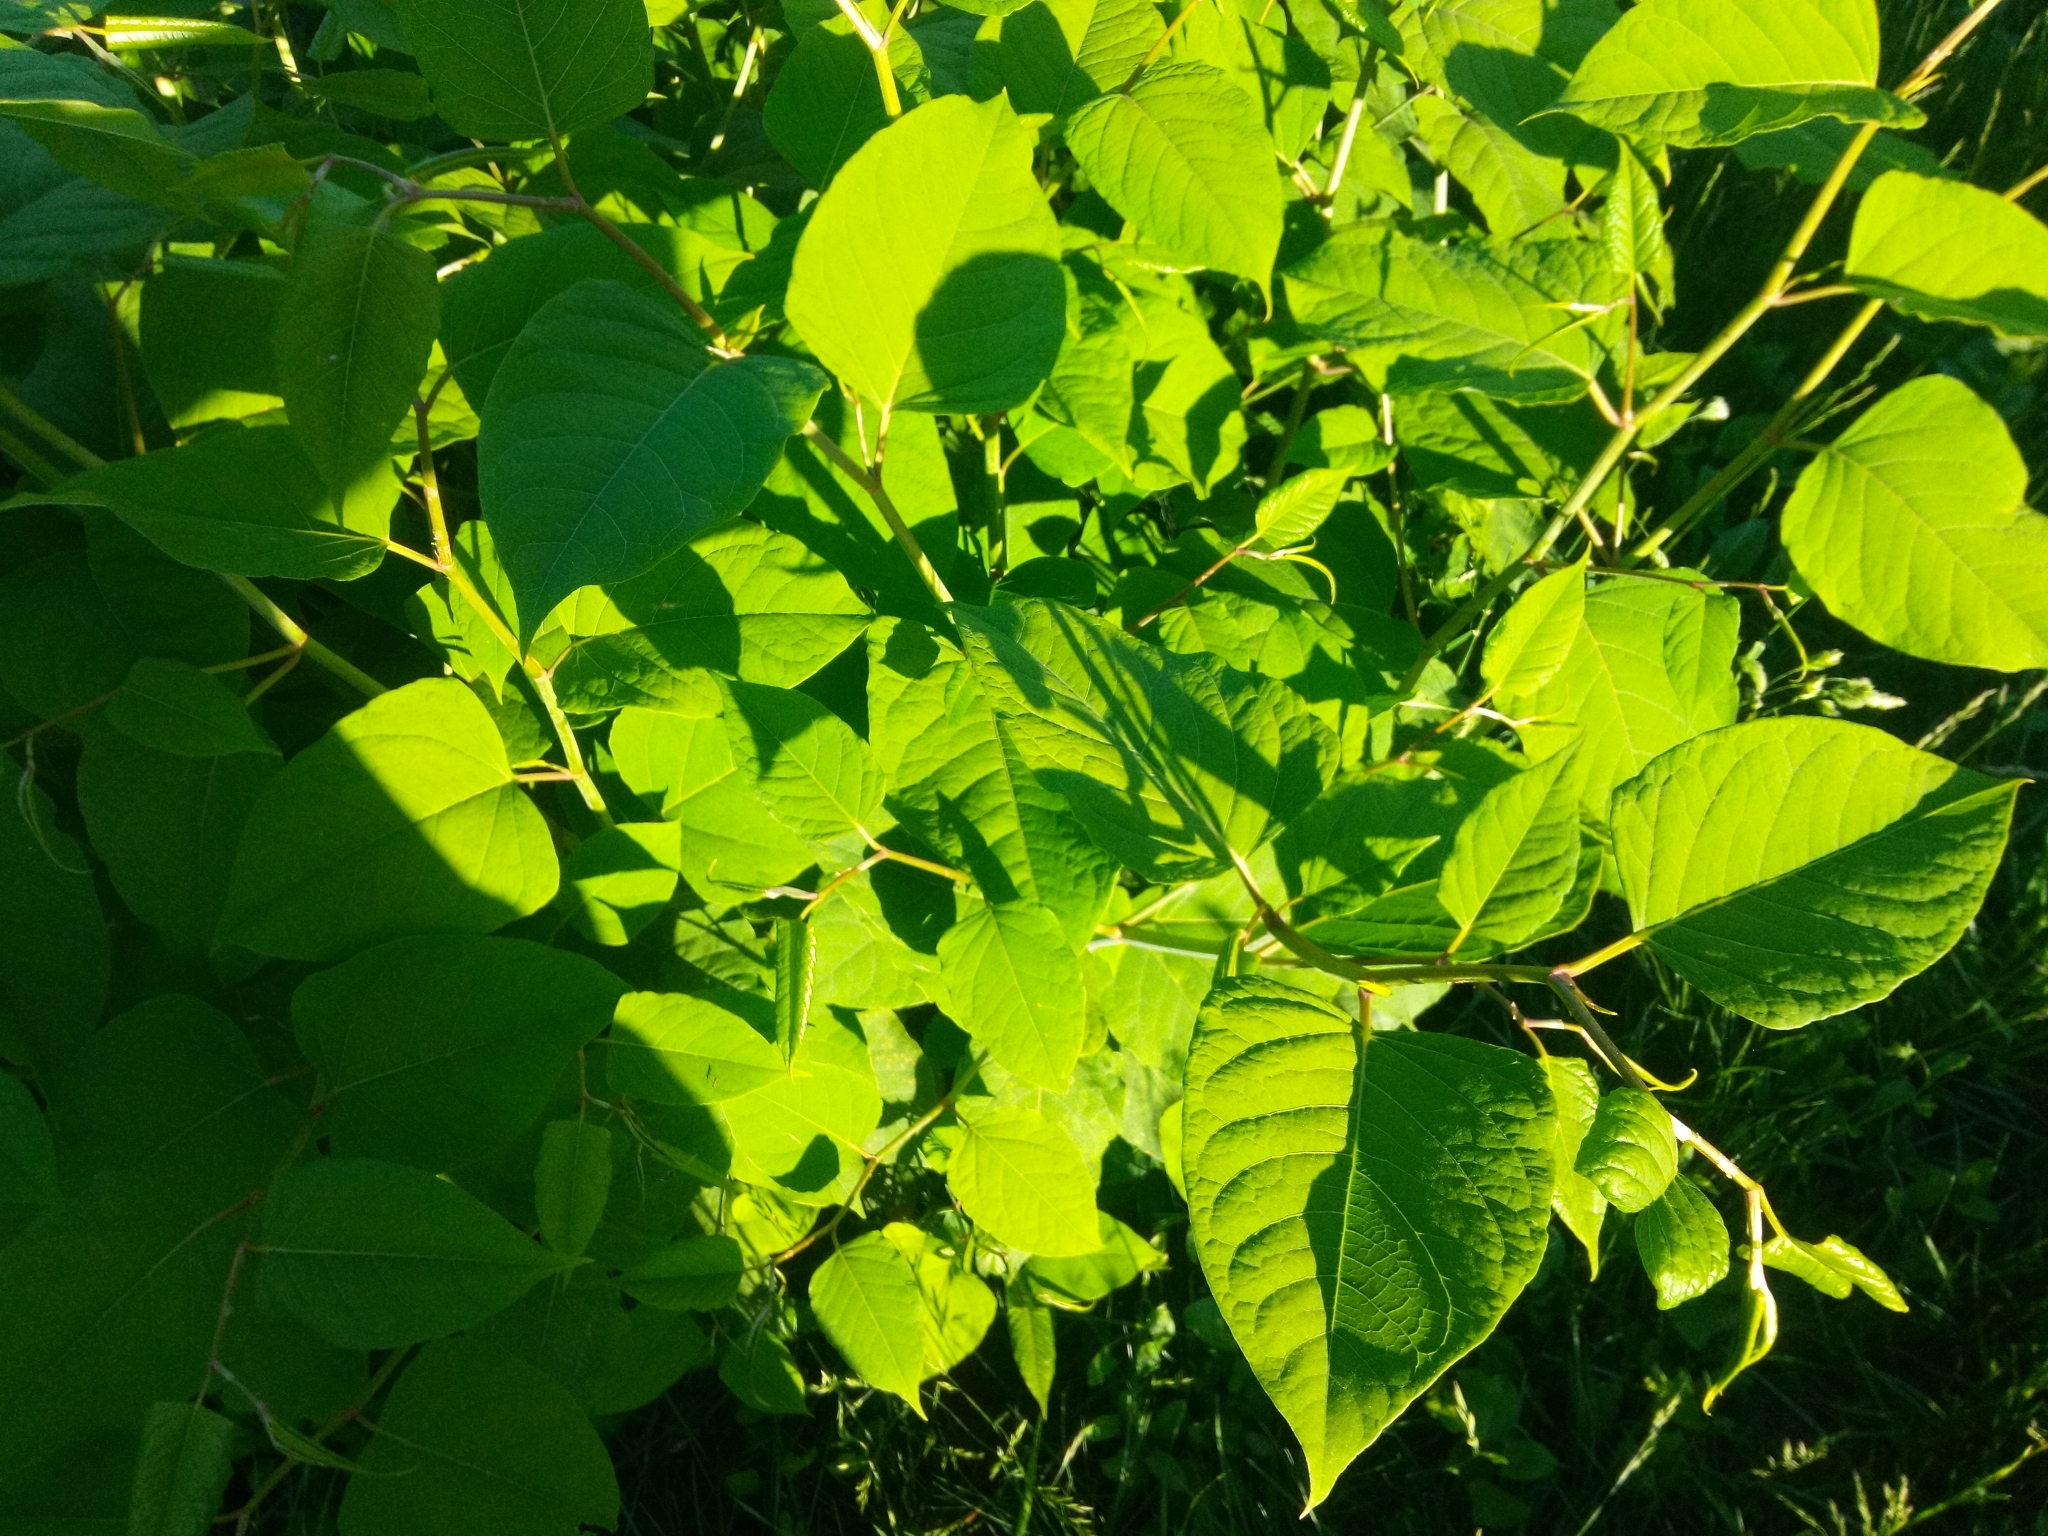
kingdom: Plantae
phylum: Tracheophyta
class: Magnoliopsida
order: Caryophyllales
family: Polygonaceae
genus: Reynoutria
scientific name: Reynoutria japonica
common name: Japanese knotweed
